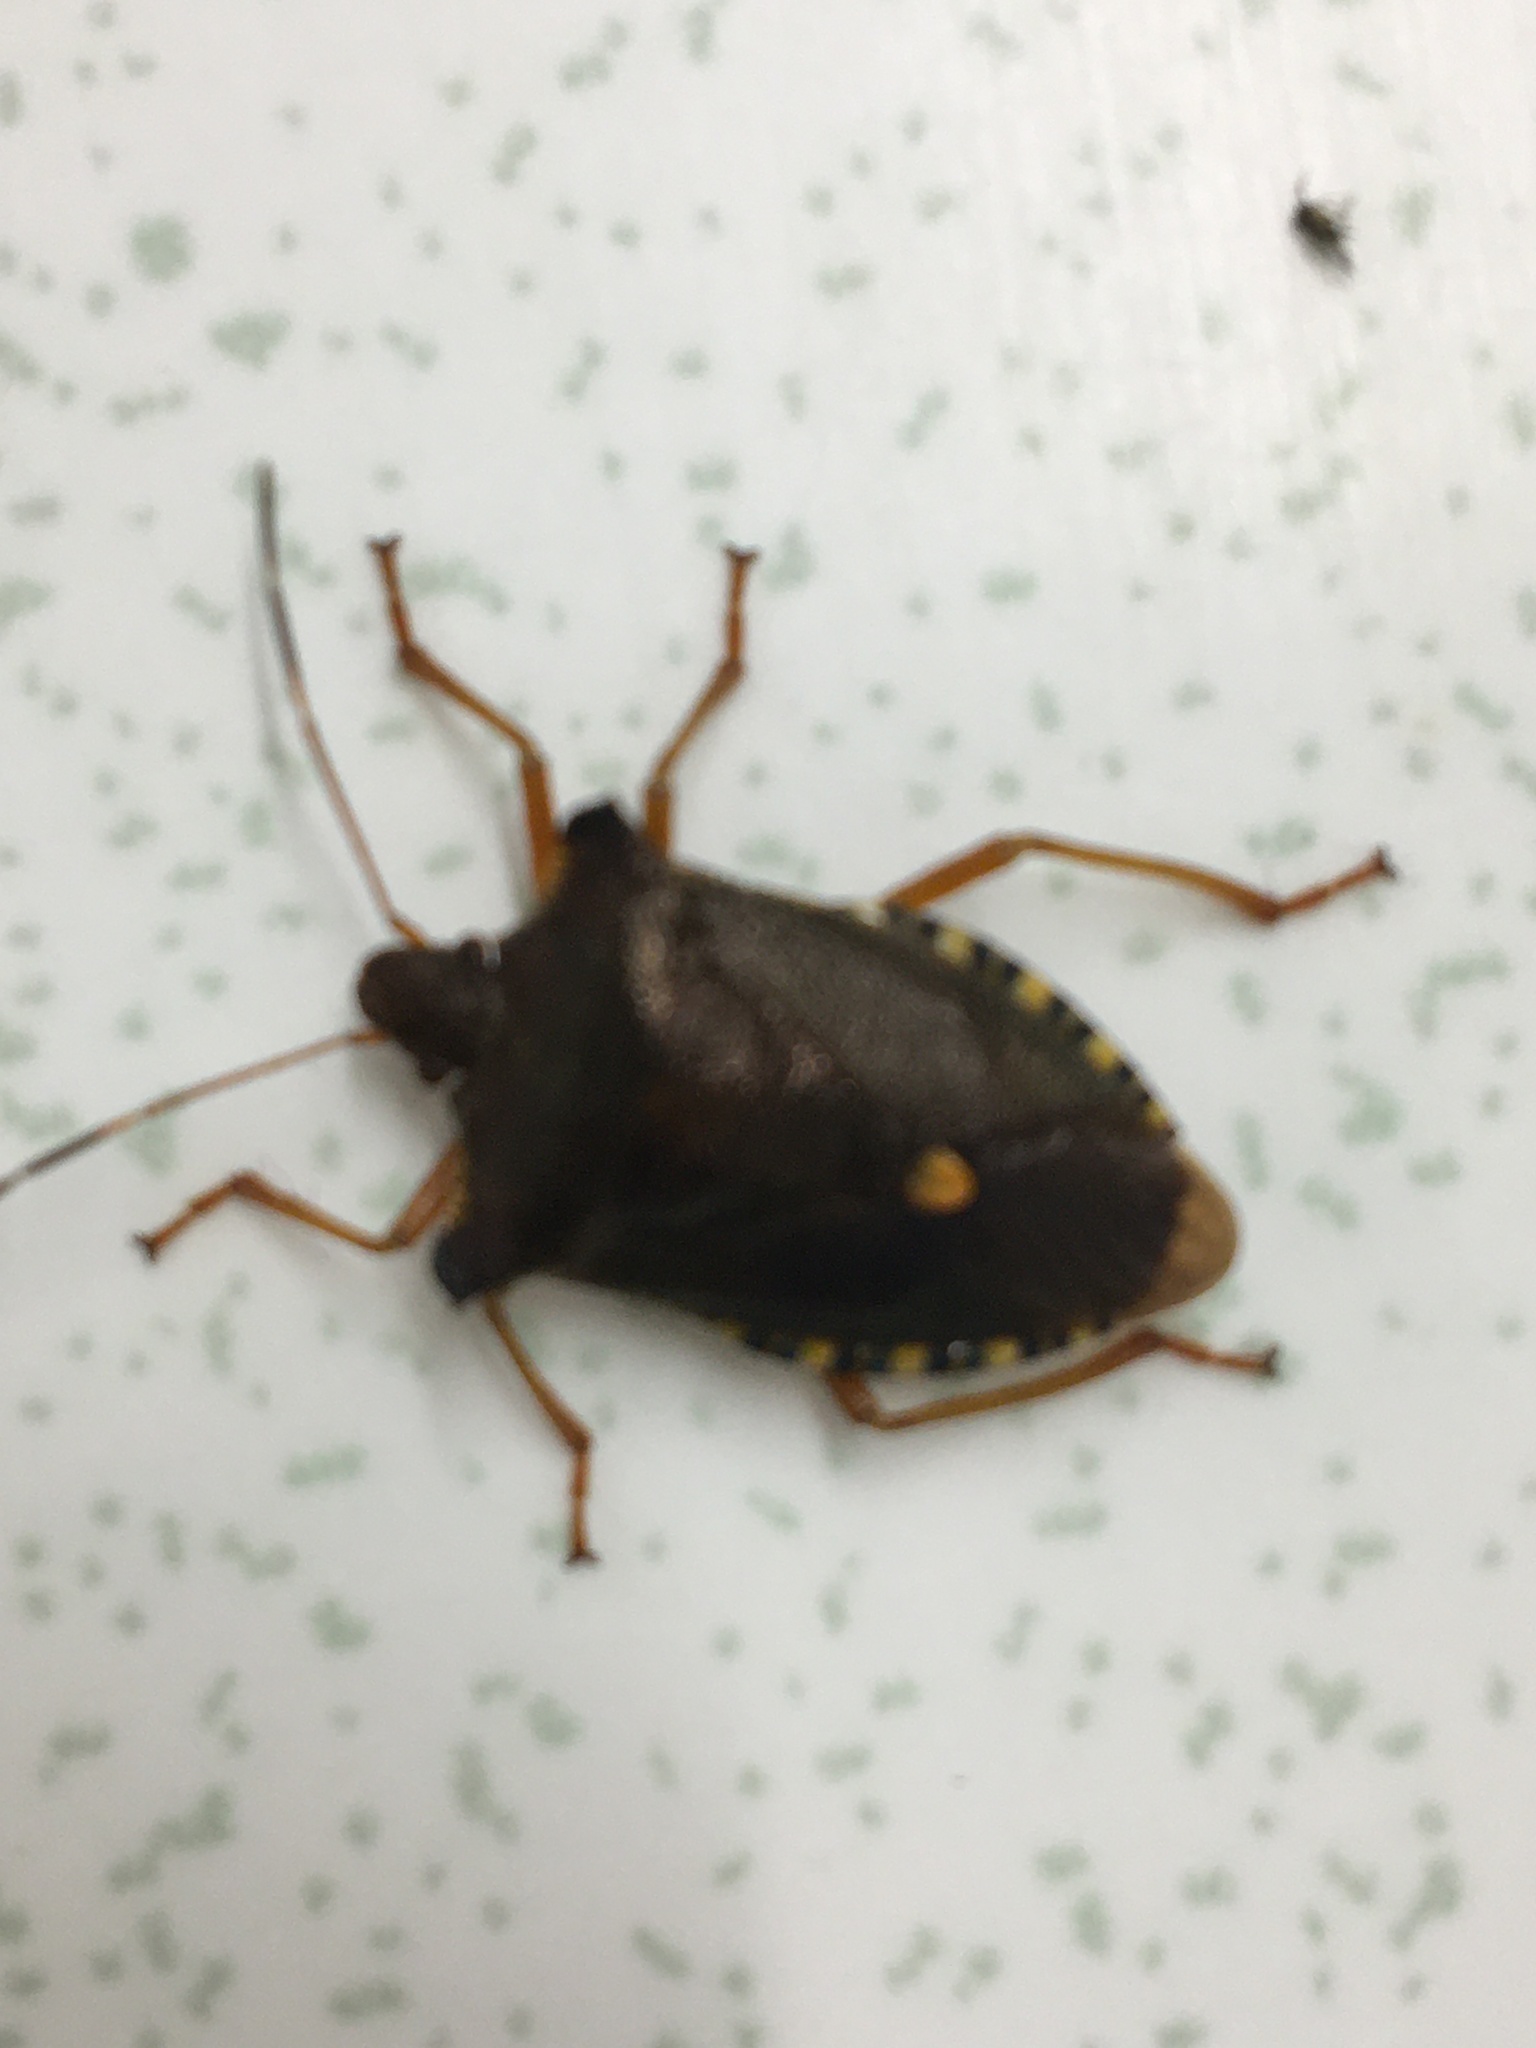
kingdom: Animalia
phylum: Arthropoda
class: Insecta
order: Hemiptera
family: Pentatomidae
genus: Pentatoma
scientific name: Pentatoma rufipes
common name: Forest bug
